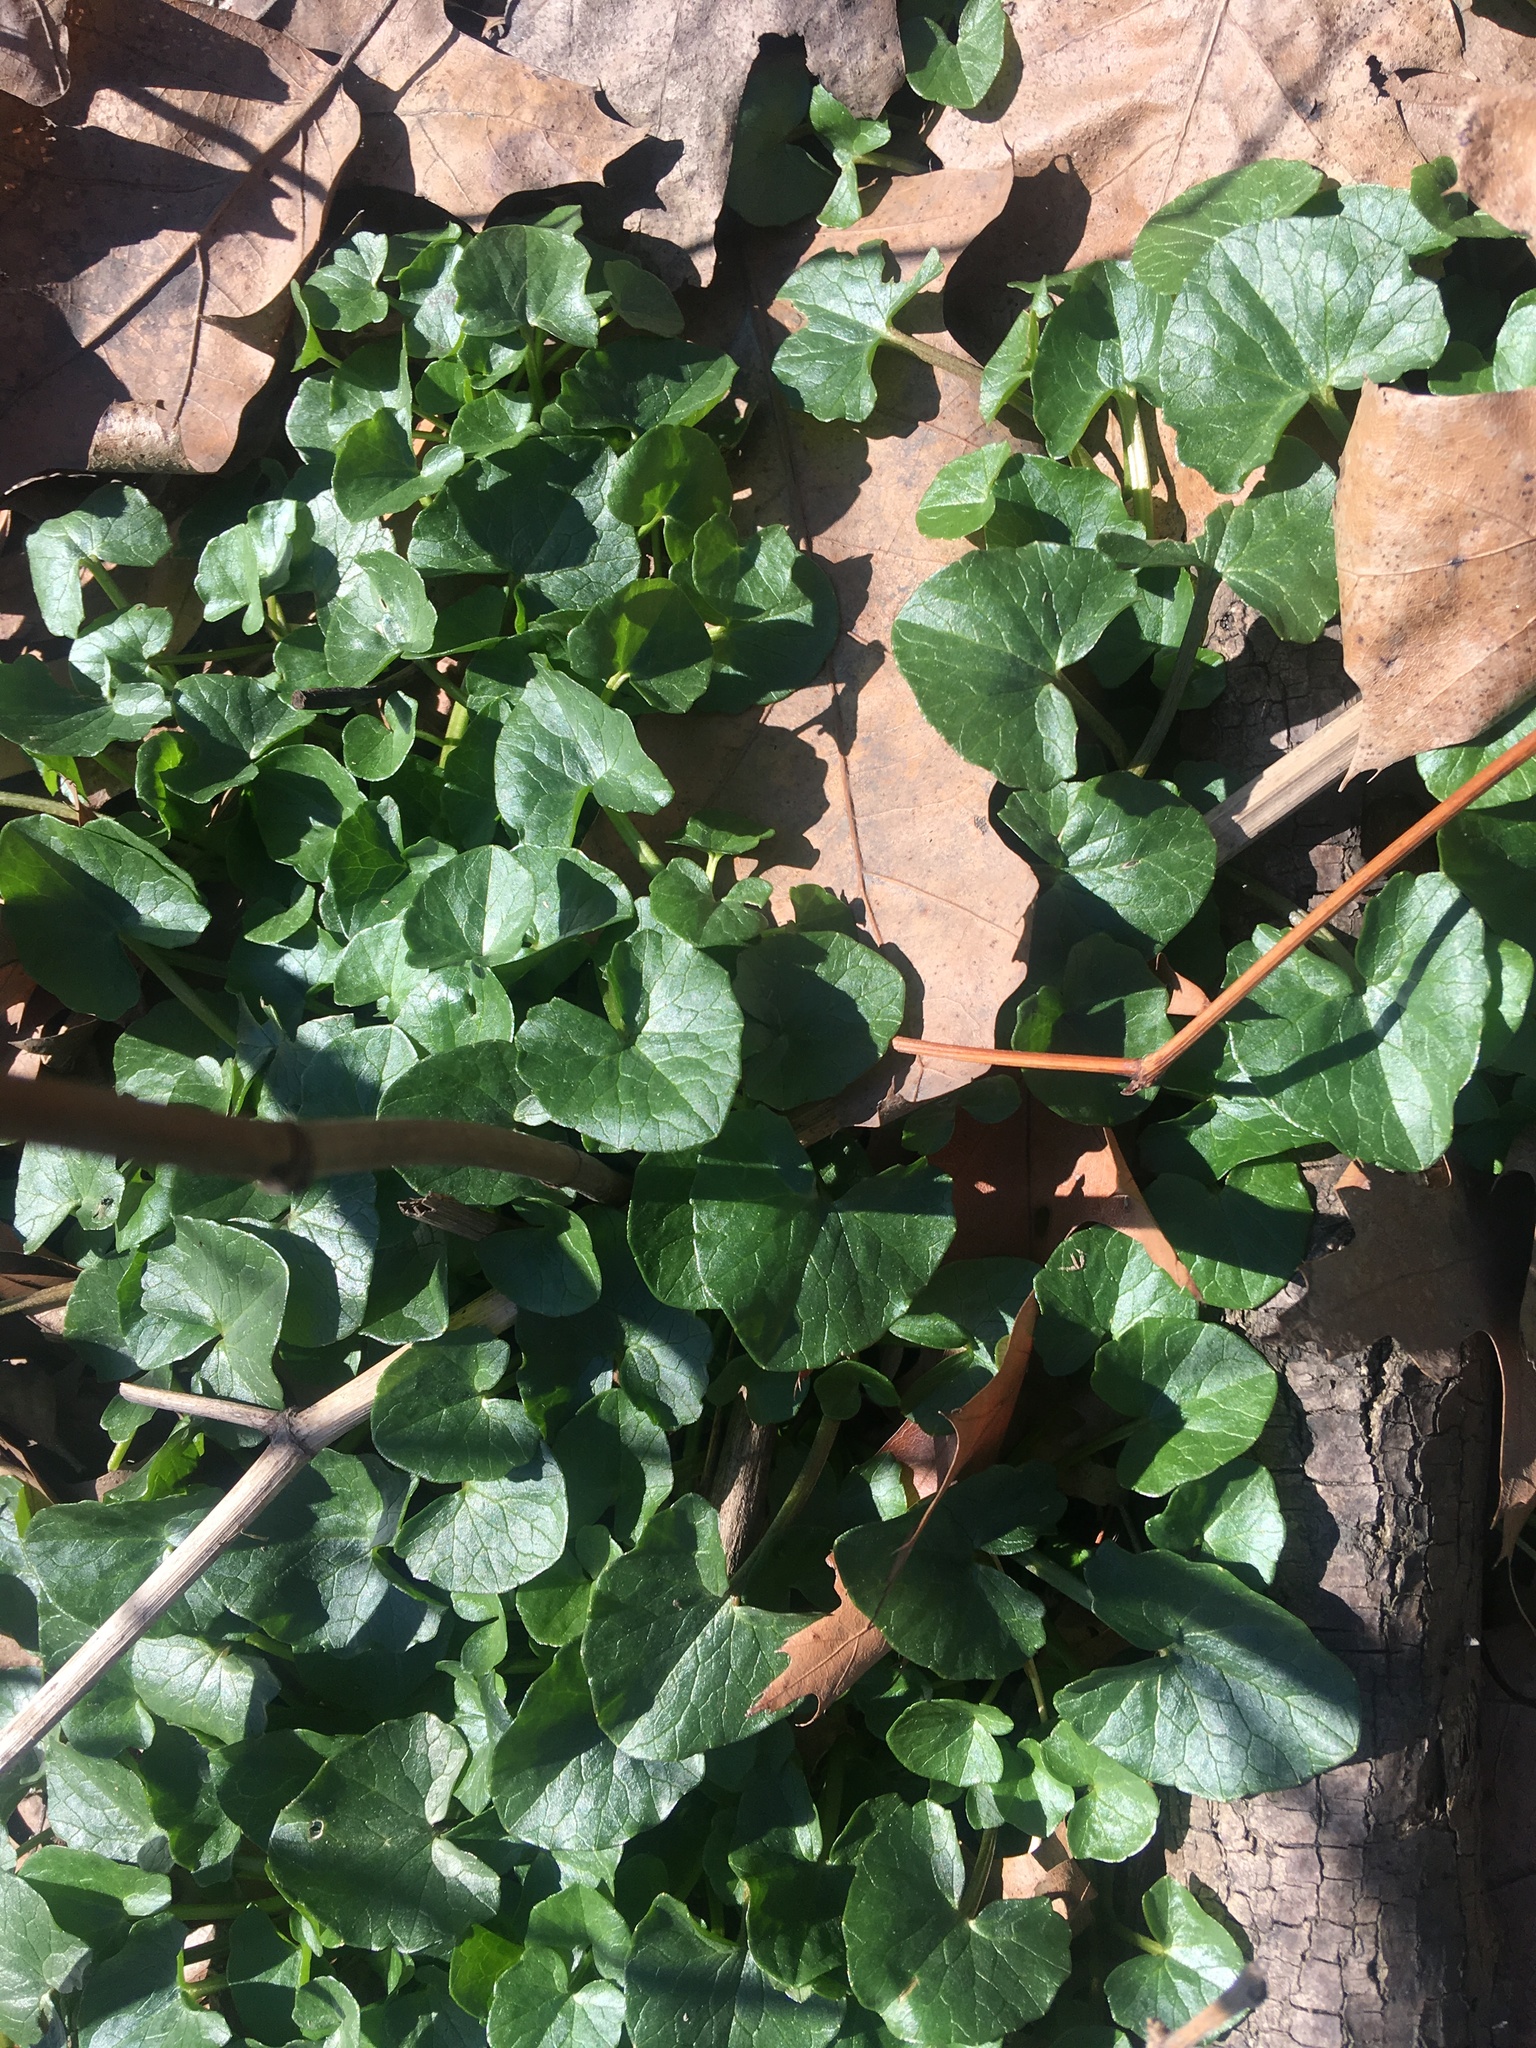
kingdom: Plantae
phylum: Tracheophyta
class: Magnoliopsida
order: Ranunculales
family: Ranunculaceae
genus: Ficaria
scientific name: Ficaria verna
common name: Lesser celandine
